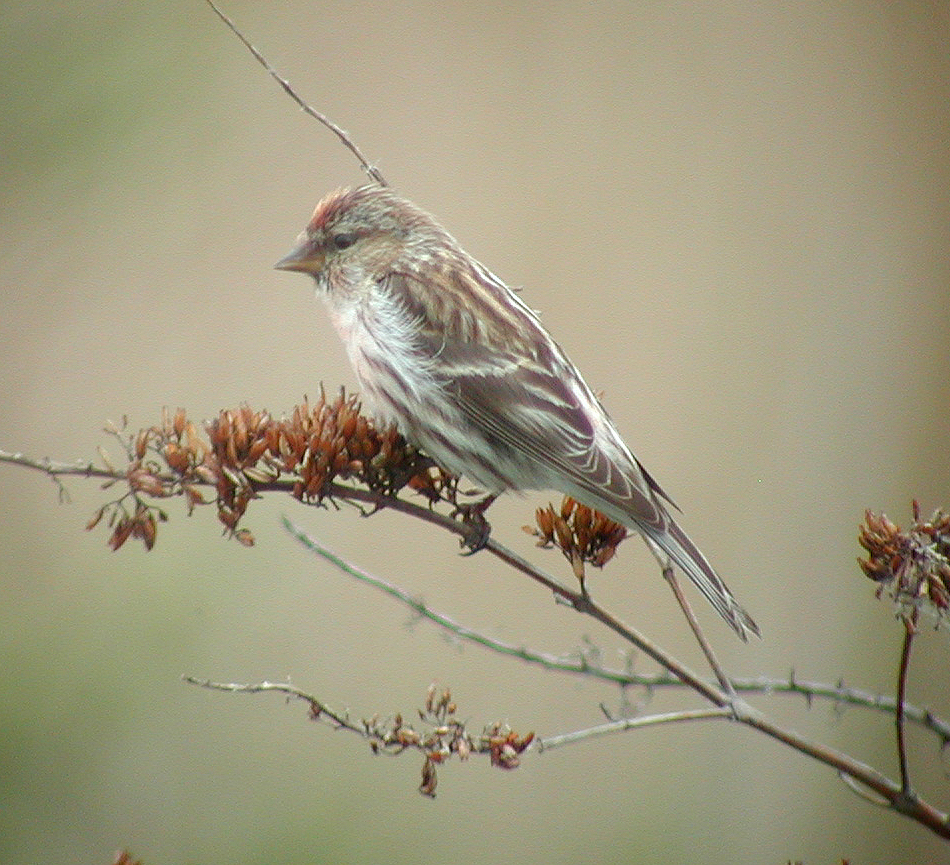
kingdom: Animalia
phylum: Chordata
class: Aves
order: Passeriformes
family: Fringillidae
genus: Acanthis
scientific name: Acanthis flammea
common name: Common redpoll
